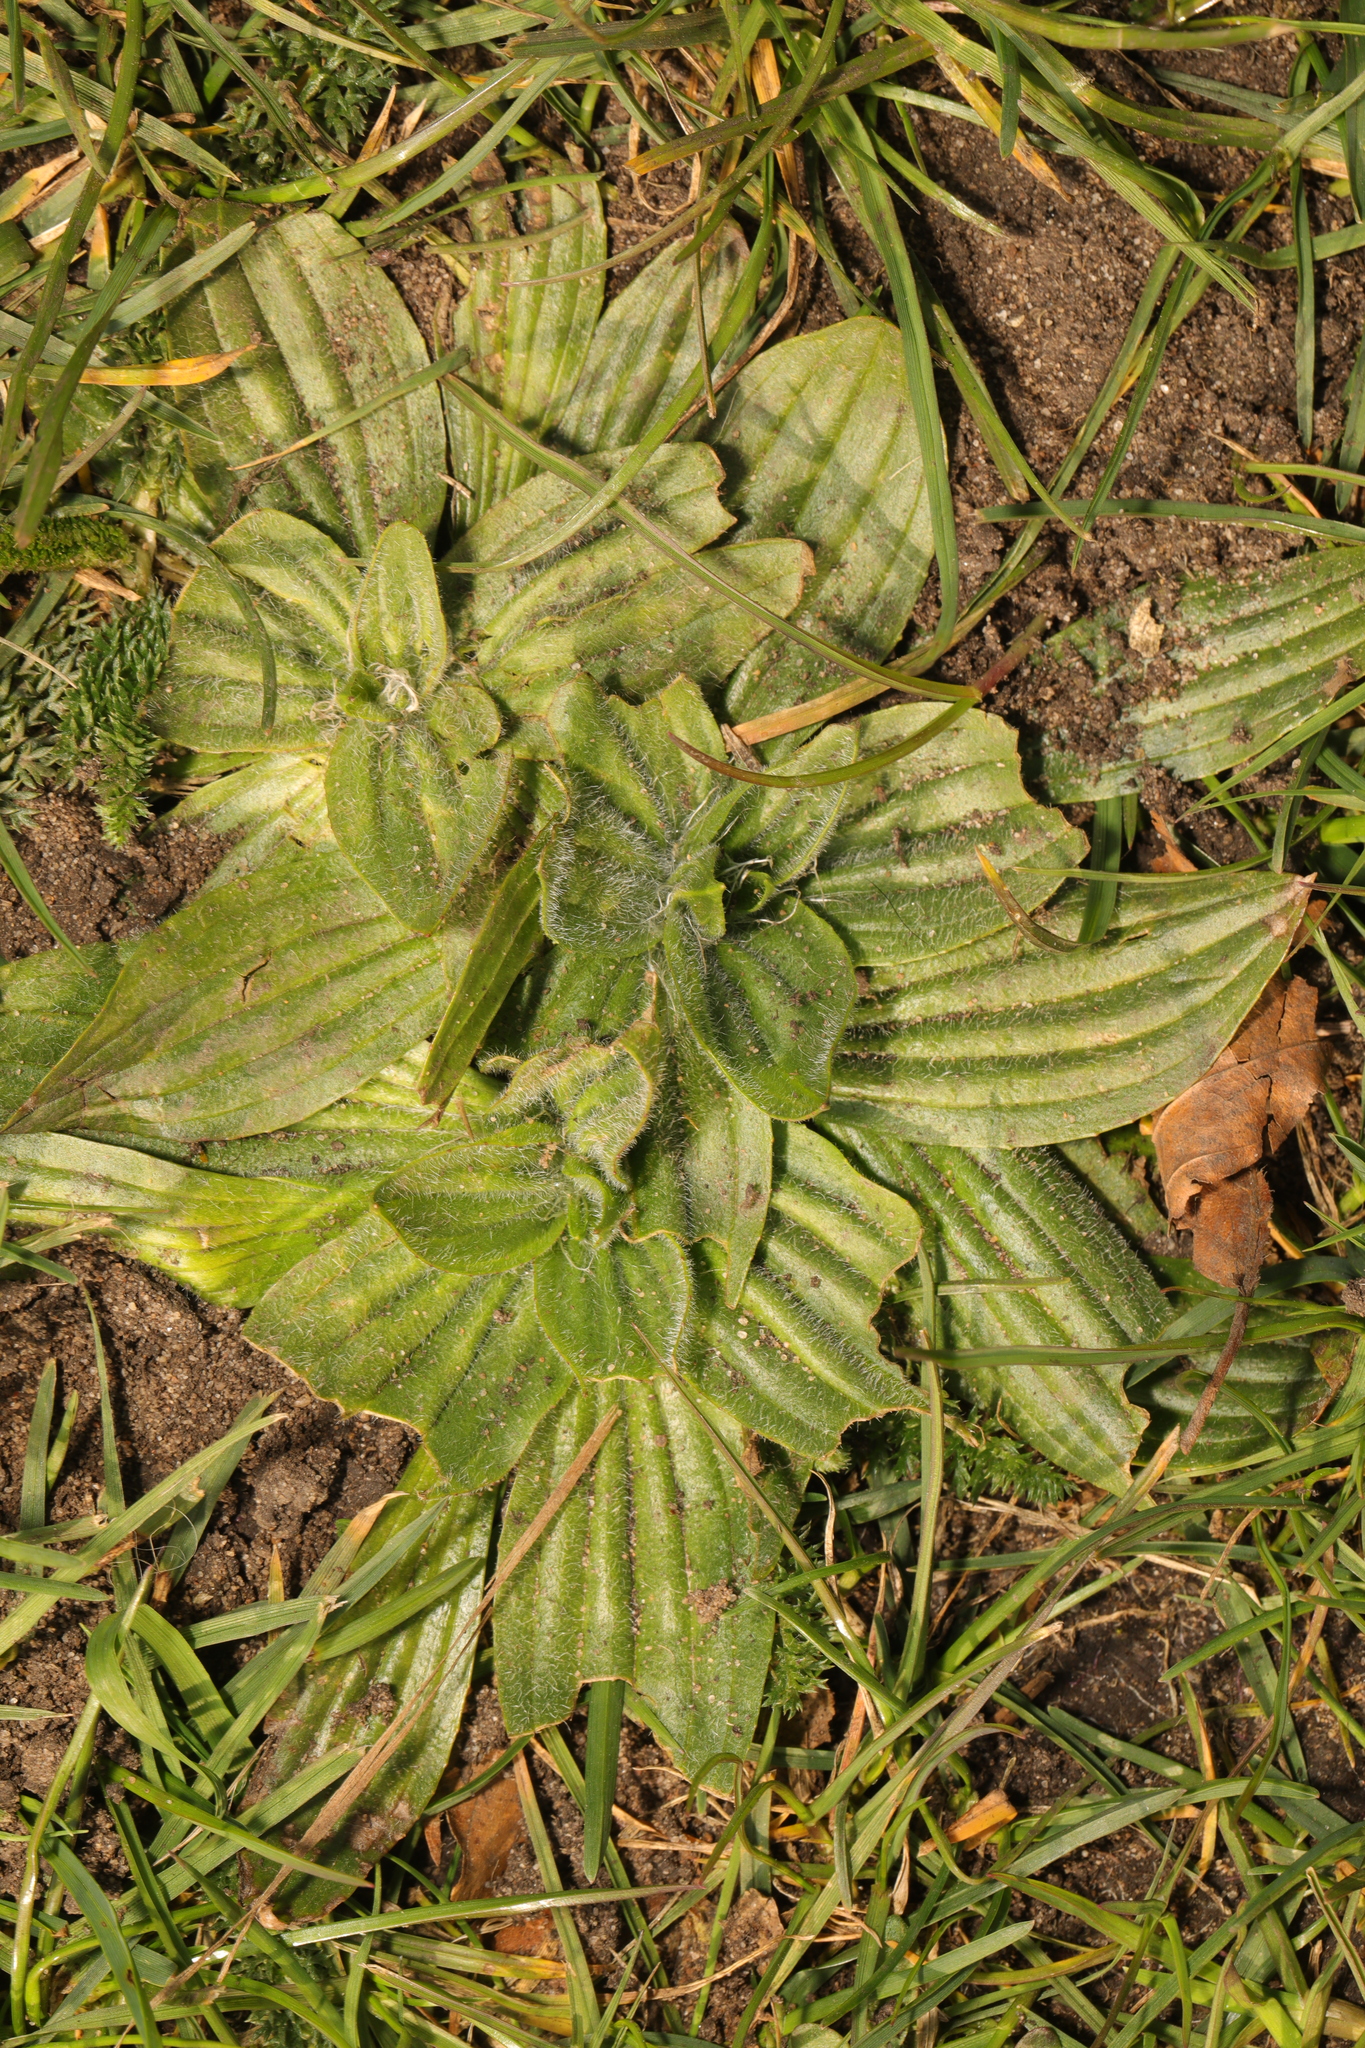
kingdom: Plantae
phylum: Tracheophyta
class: Magnoliopsida
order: Lamiales
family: Plantaginaceae
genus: Plantago
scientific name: Plantago lanceolata
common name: Ribwort plantain
